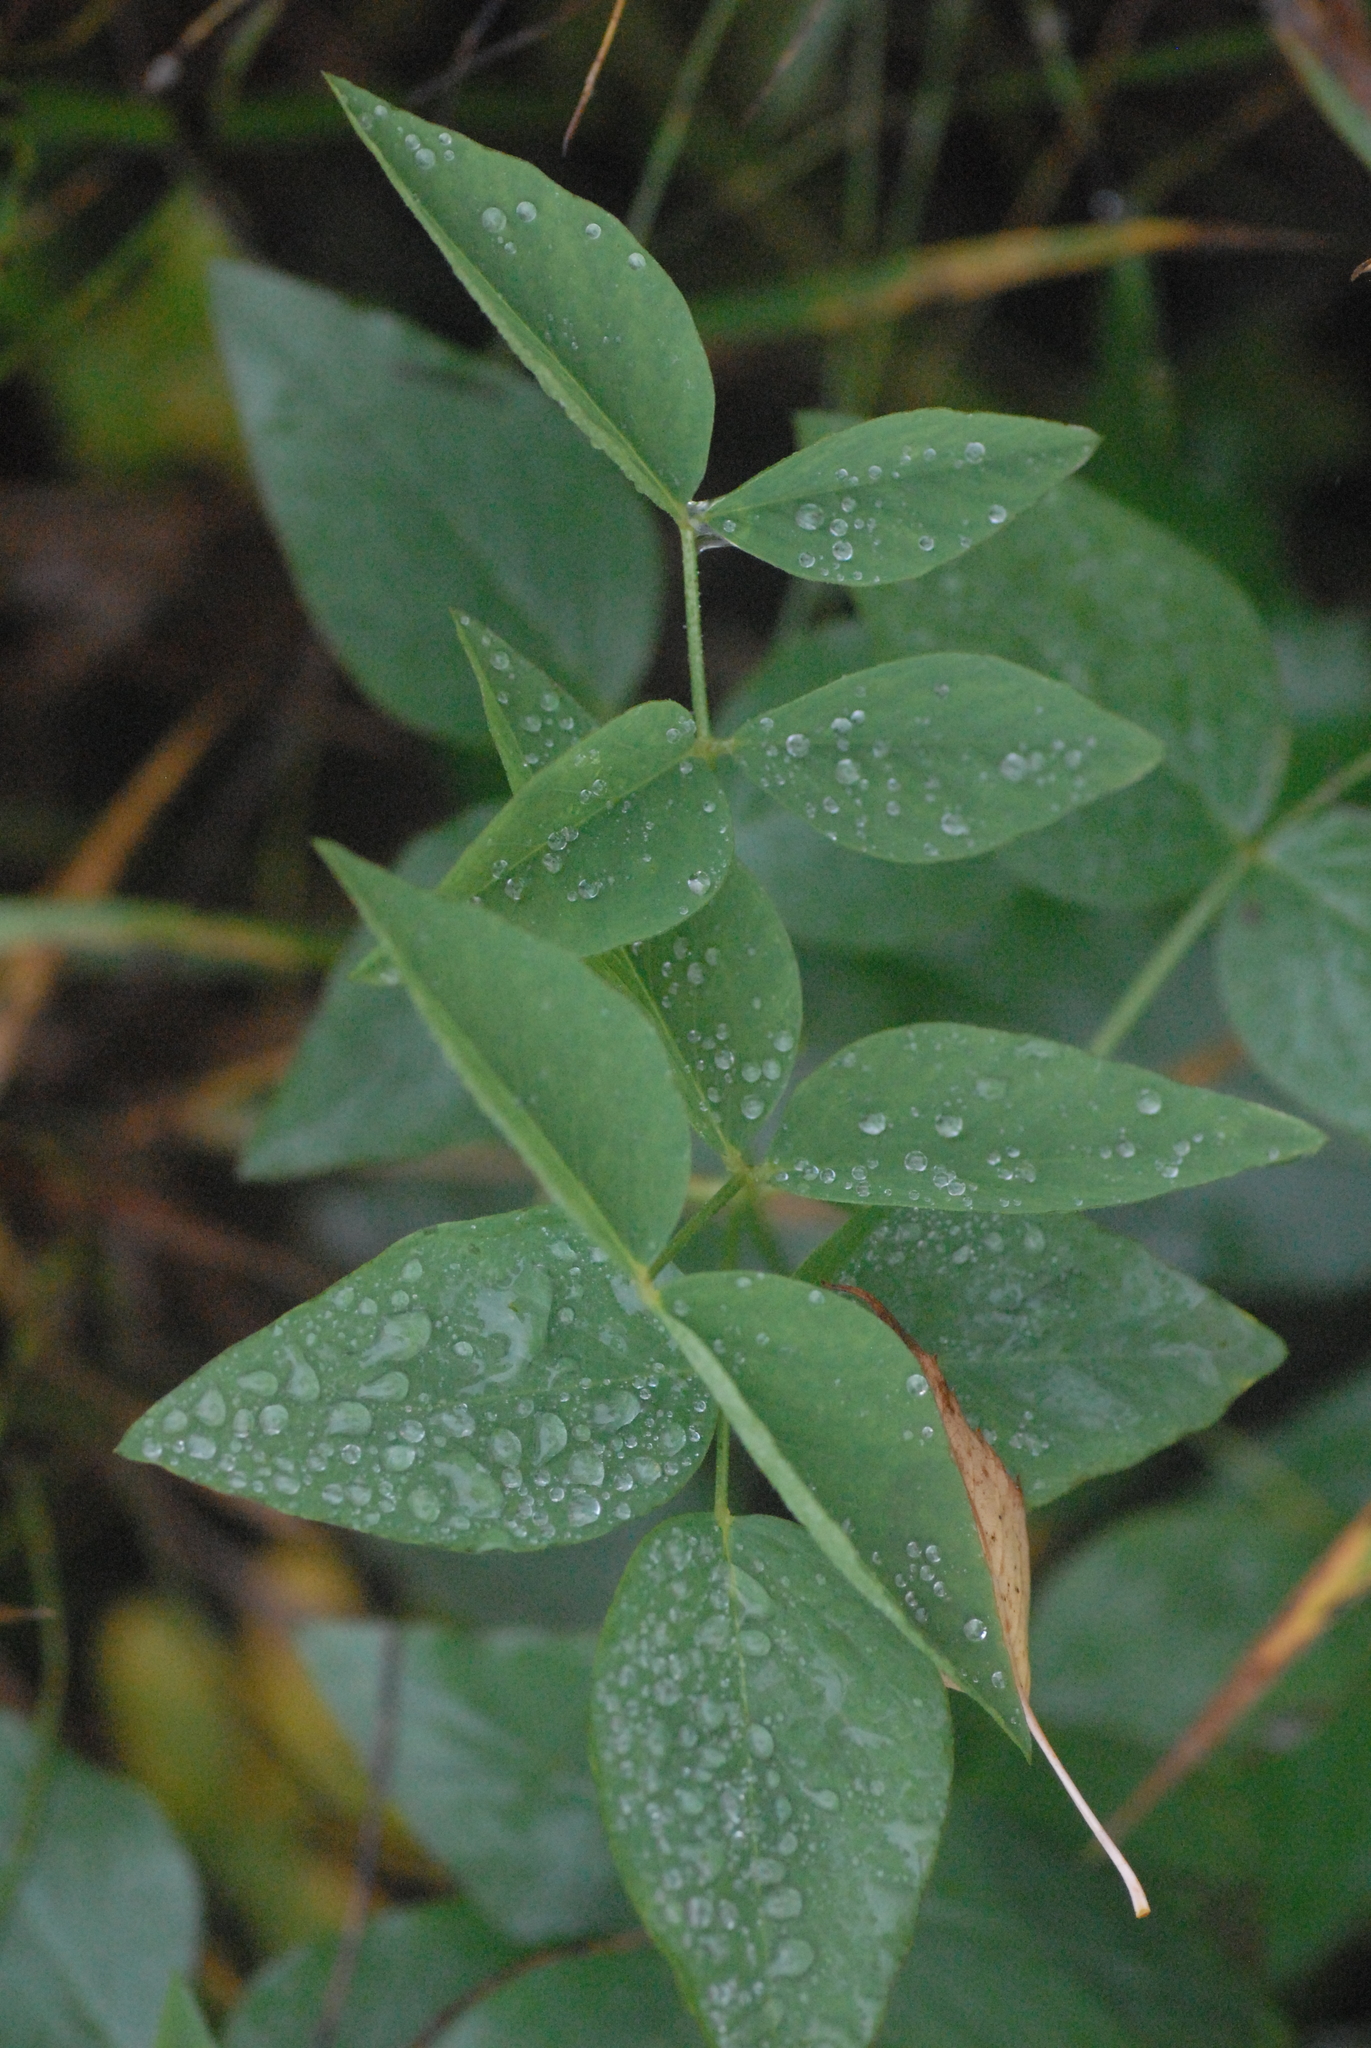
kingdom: Plantae
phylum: Tracheophyta
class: Magnoliopsida
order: Fabales
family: Fabaceae
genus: Galega
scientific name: Galega orientalis
